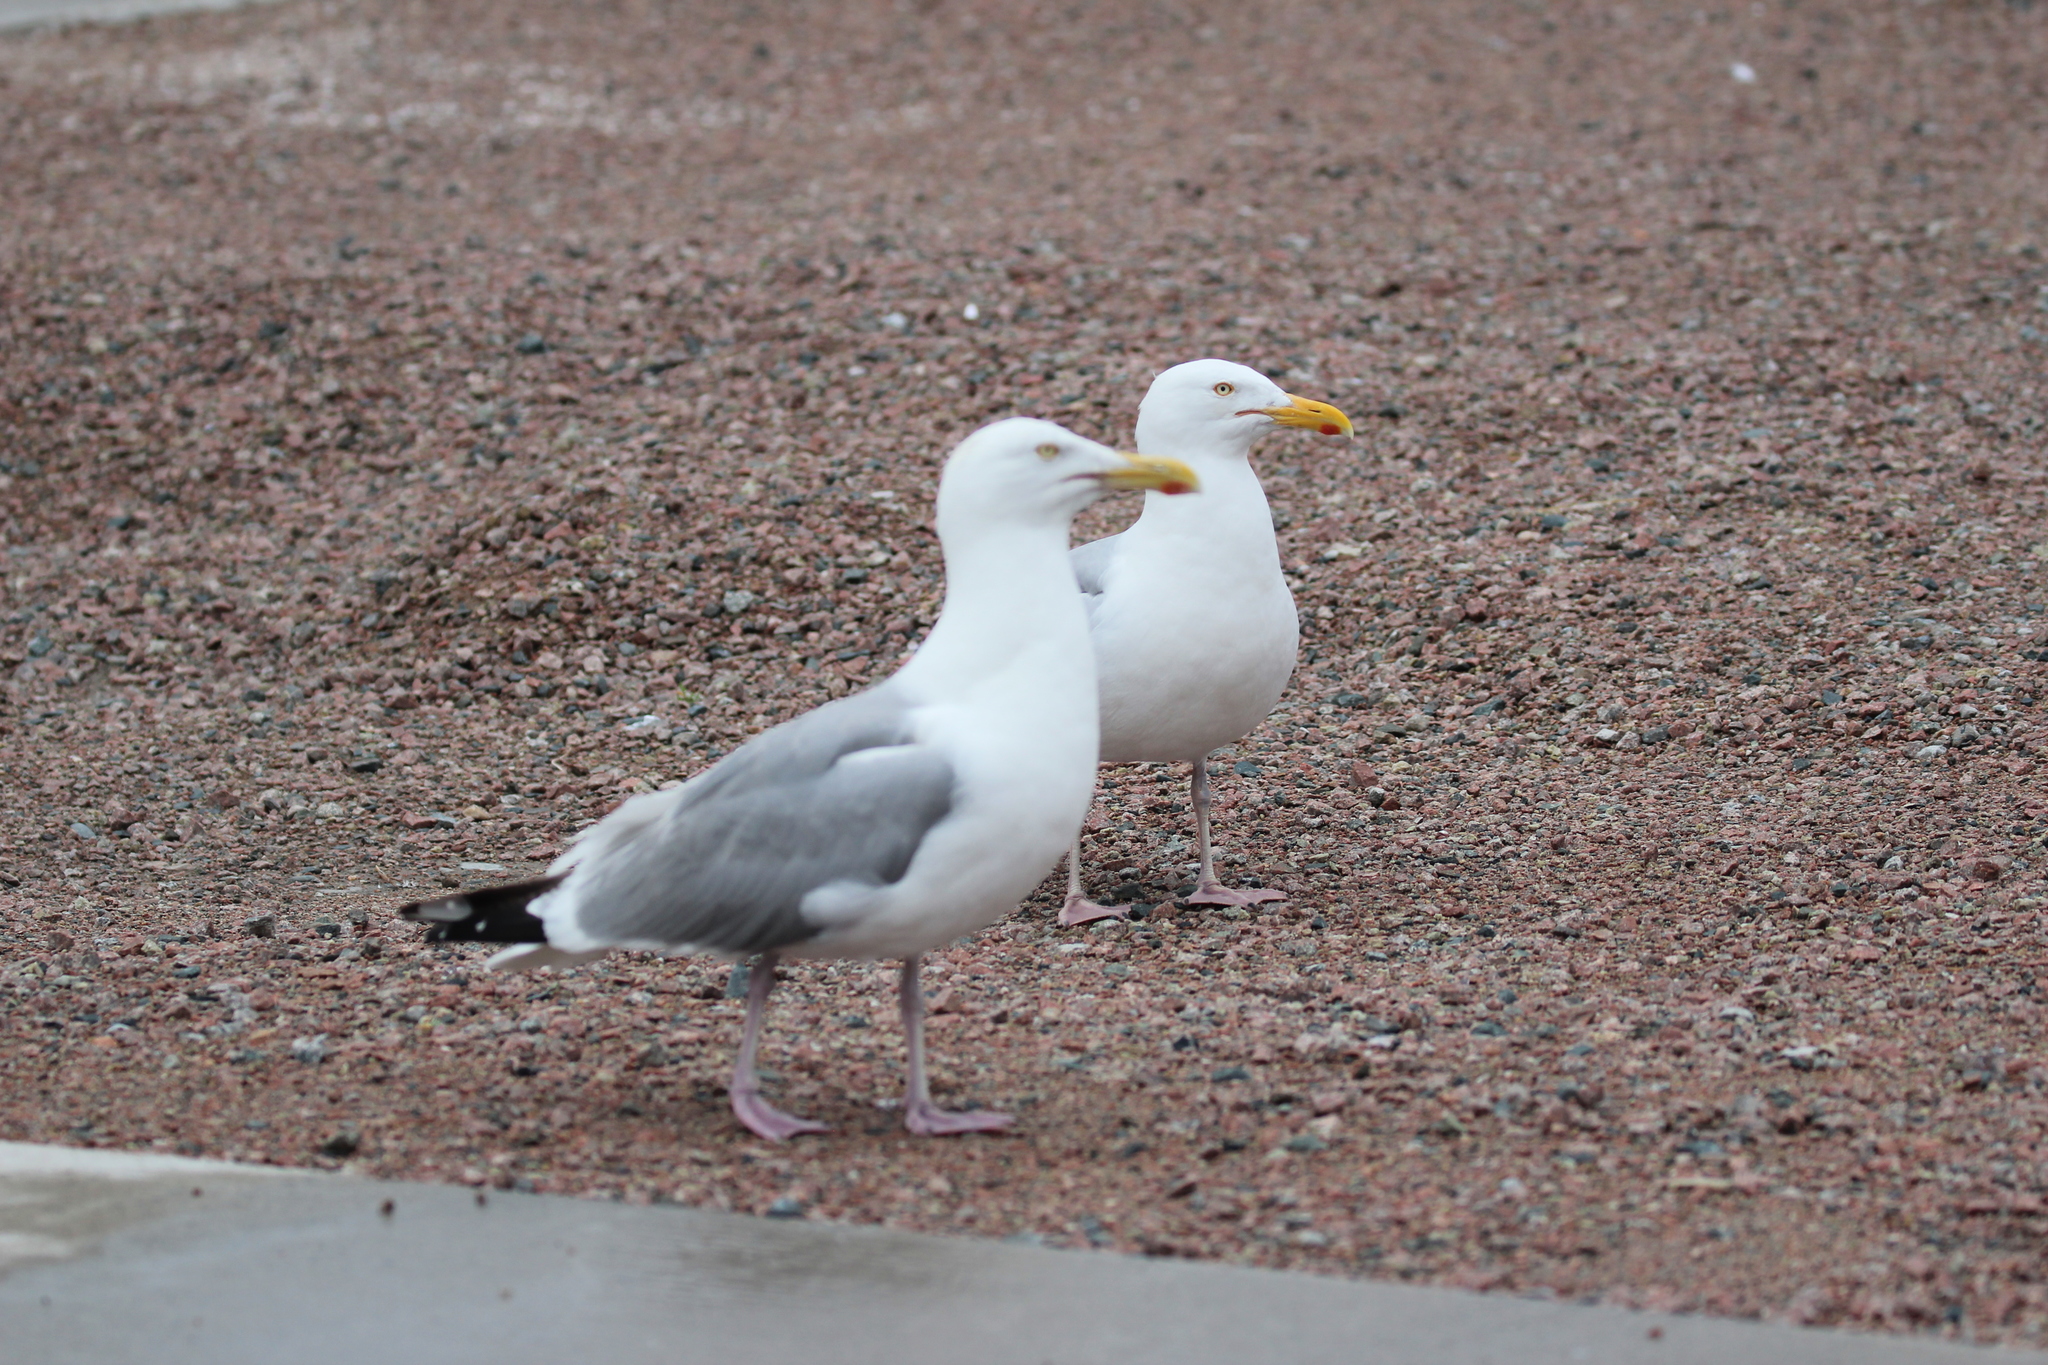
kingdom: Animalia
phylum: Chordata
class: Aves
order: Charadriiformes
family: Laridae
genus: Larus
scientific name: Larus argentatus
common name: Herring gull
